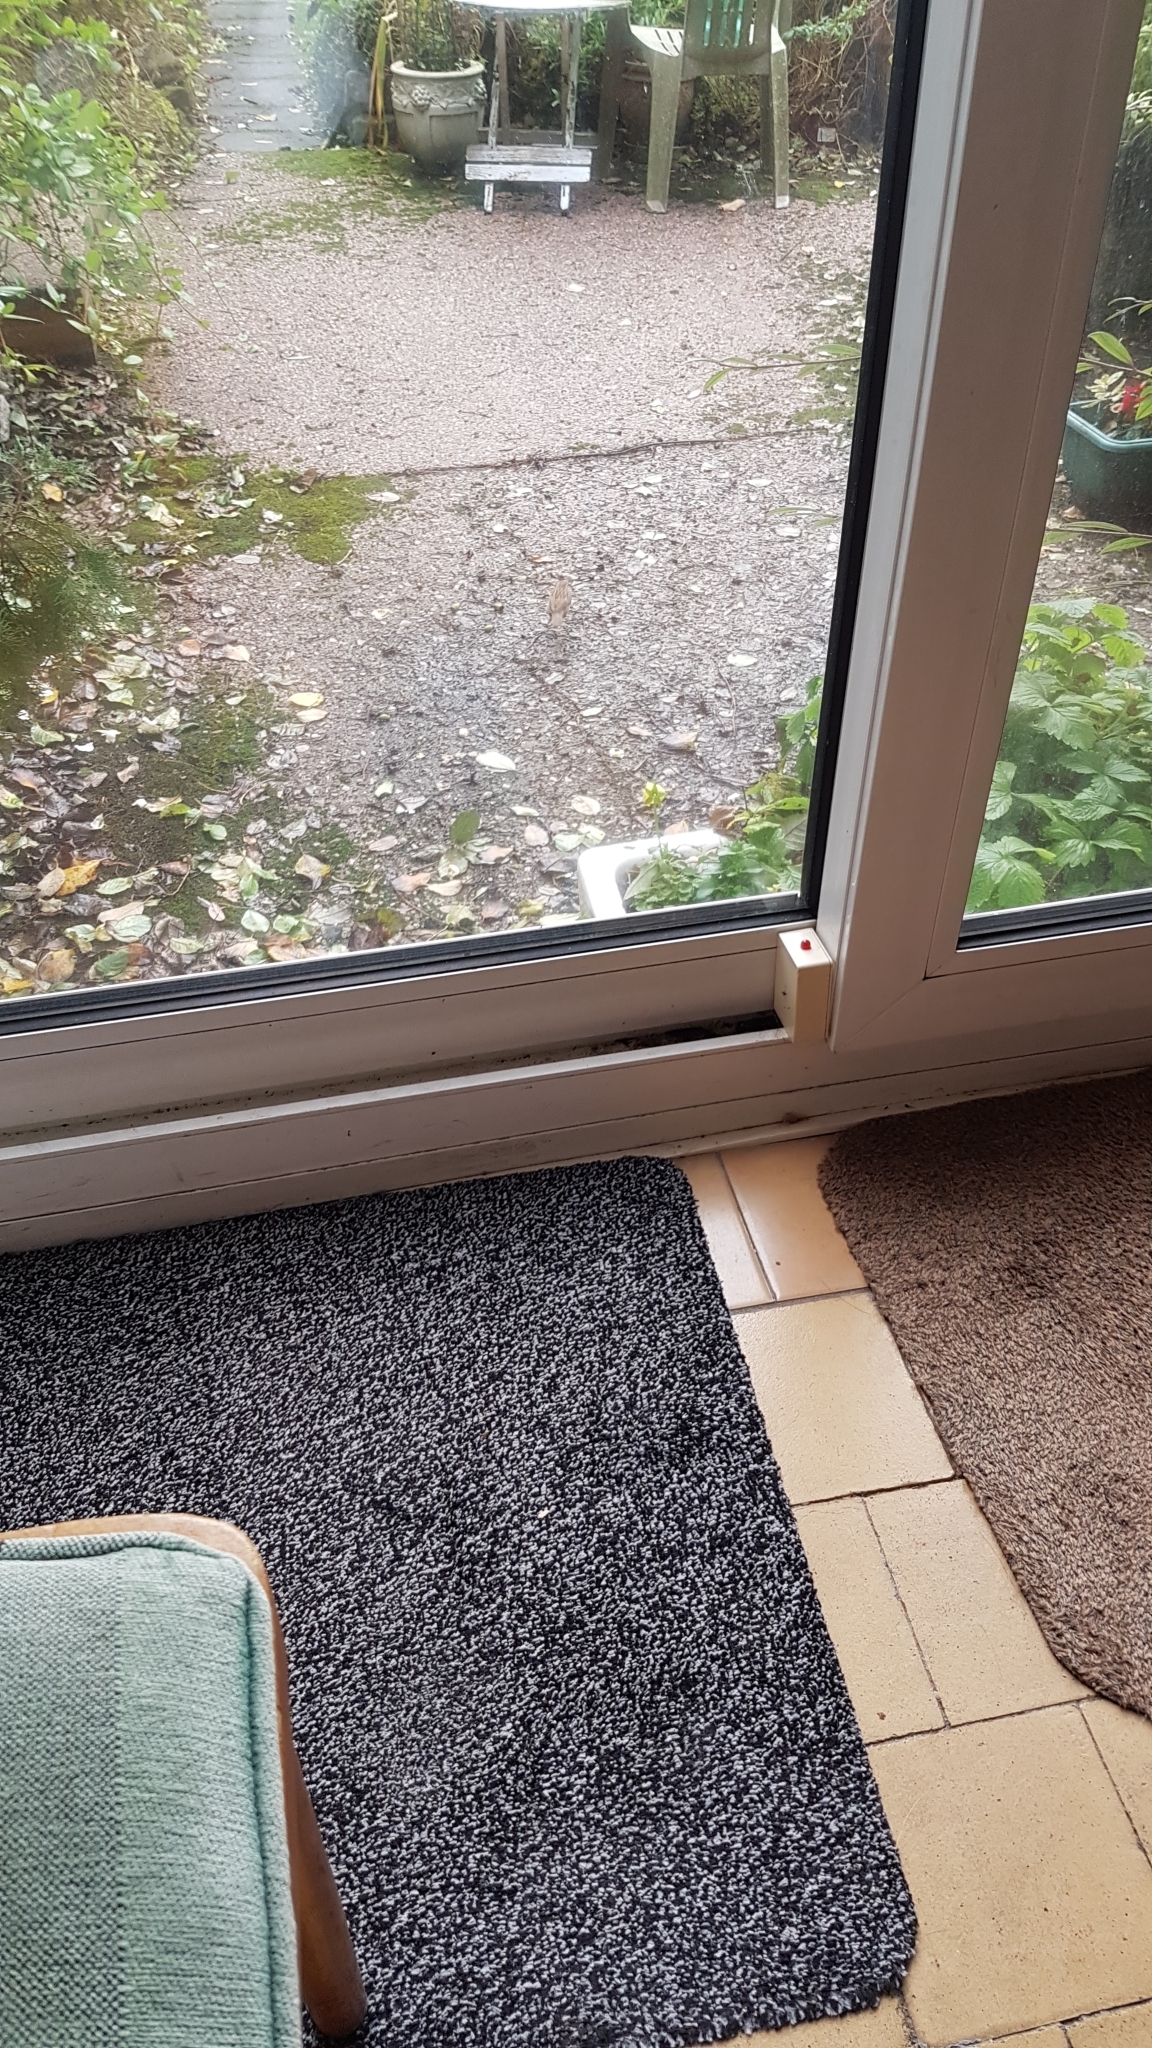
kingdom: Animalia
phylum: Chordata
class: Aves
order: Passeriformes
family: Prunellidae
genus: Prunella
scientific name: Prunella modularis
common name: Dunnock
